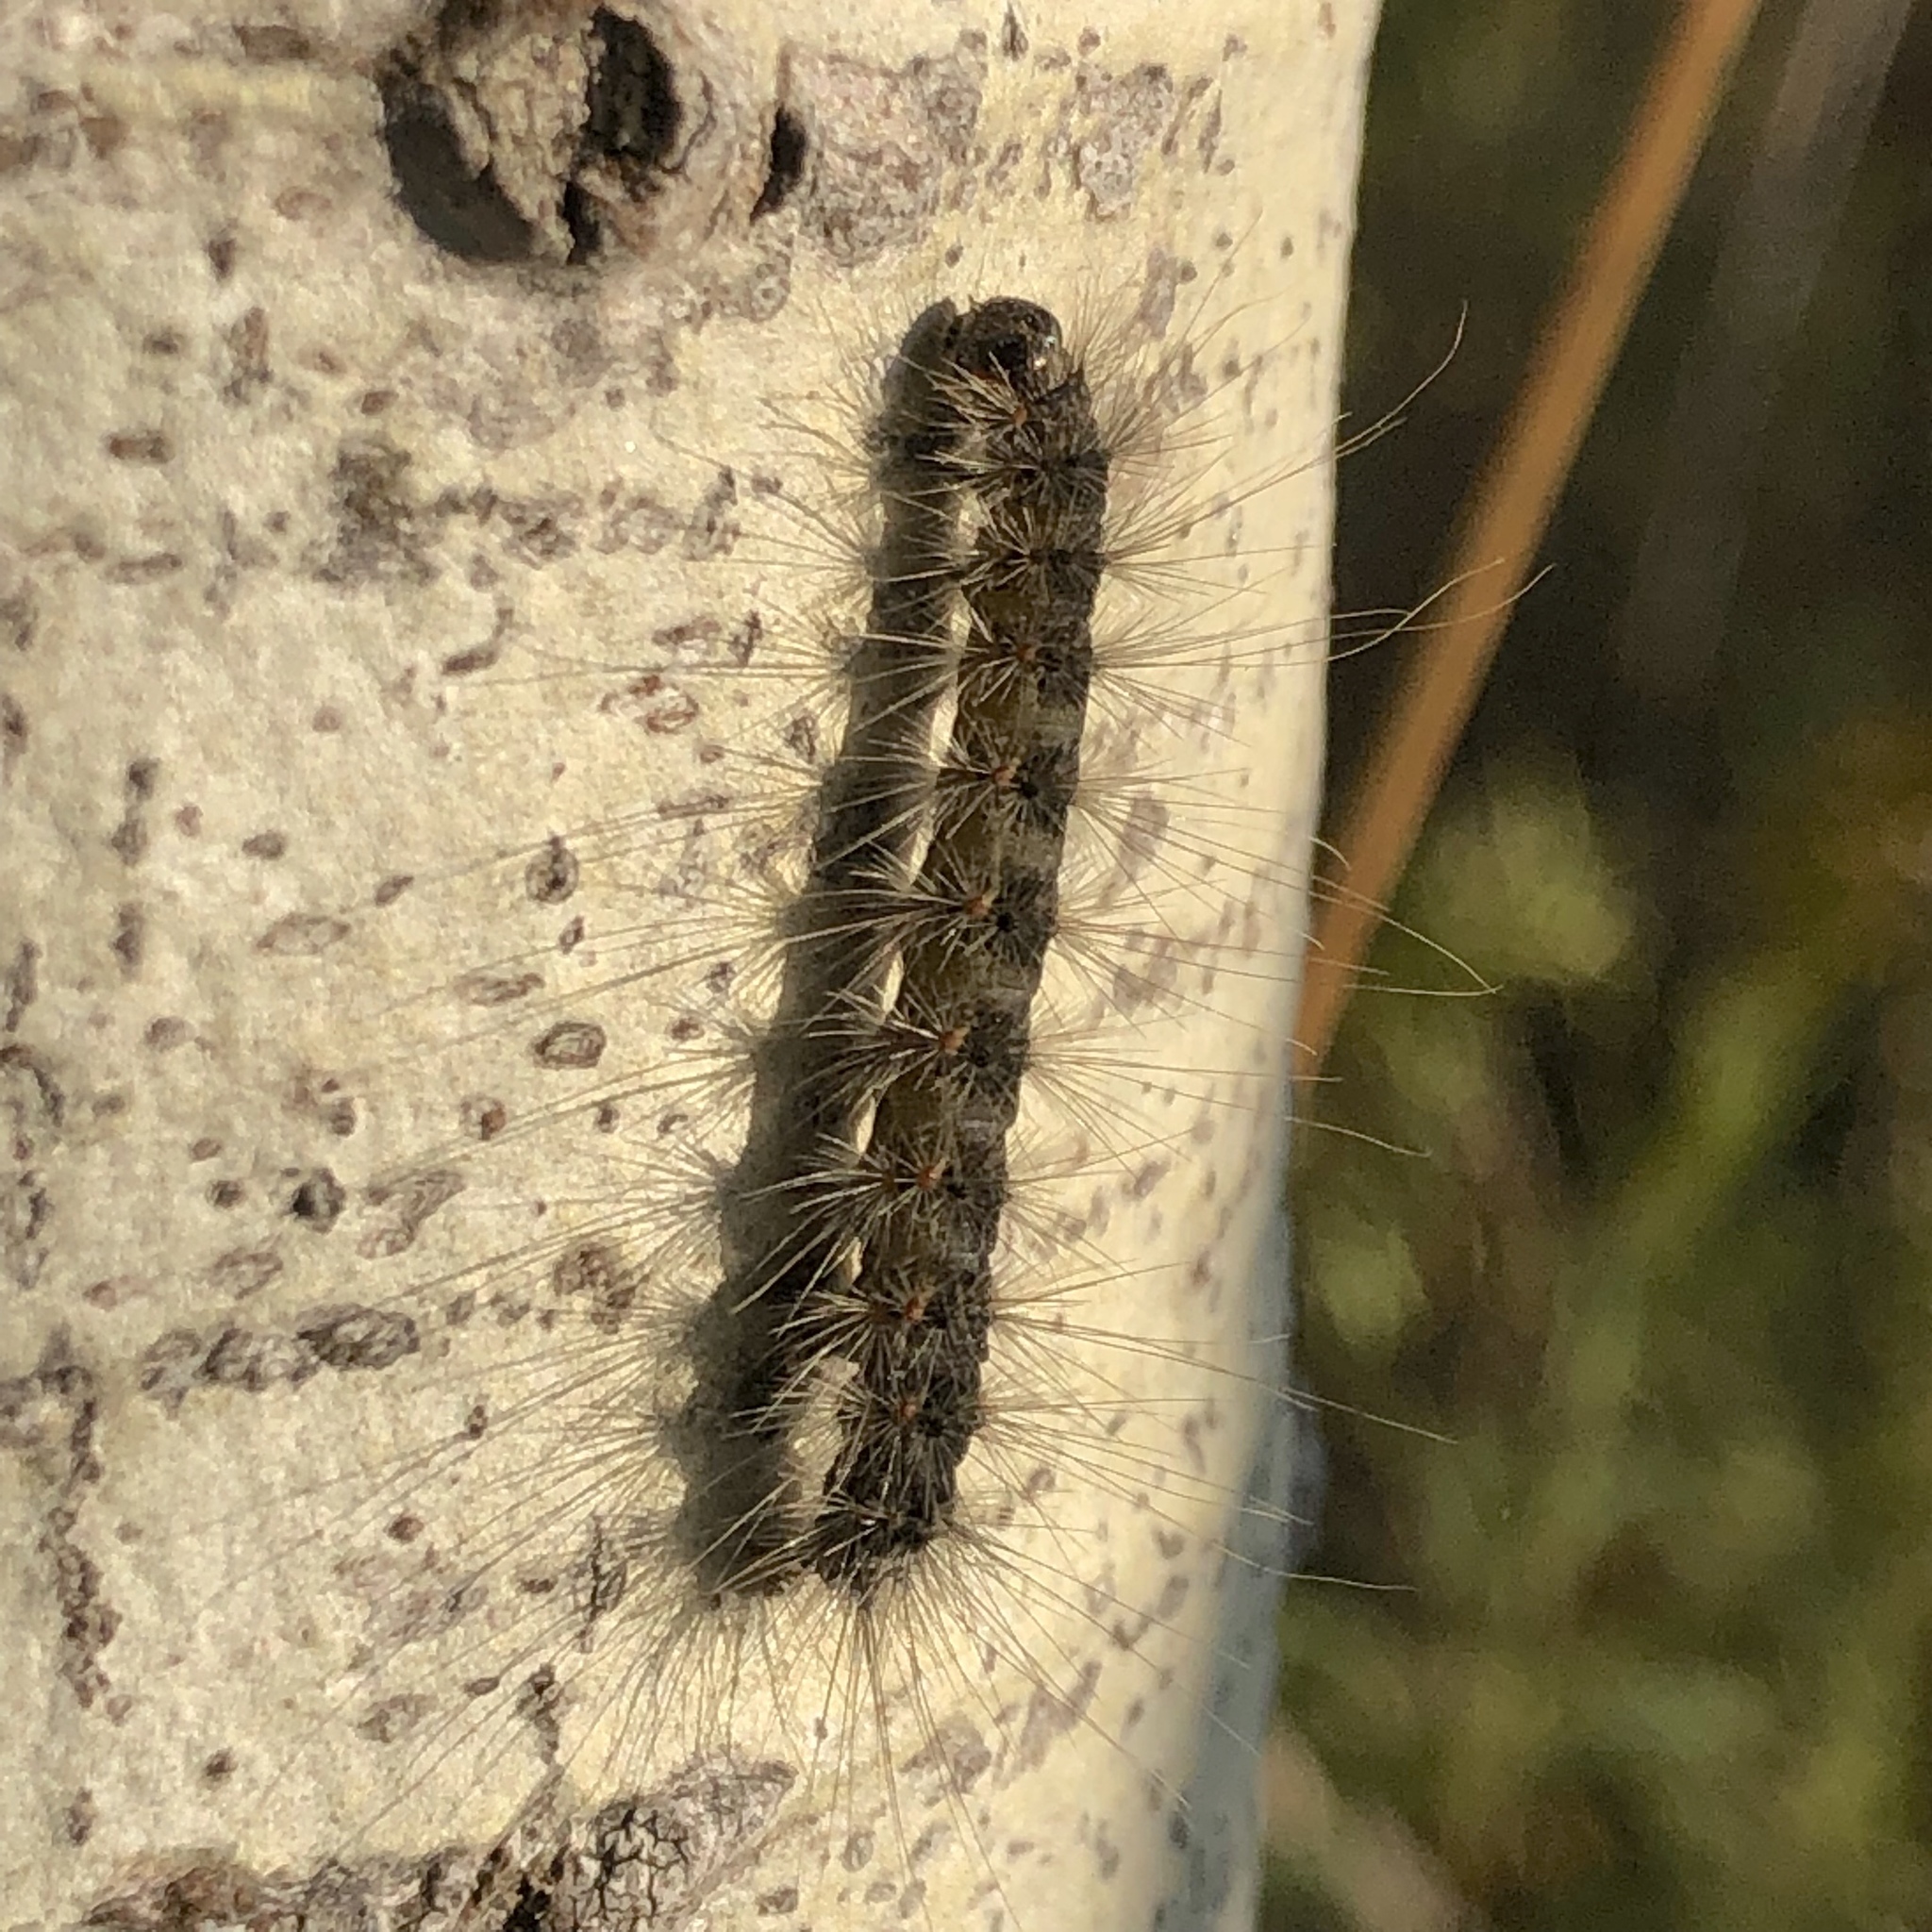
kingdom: Animalia
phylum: Arthropoda
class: Insecta
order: Lepidoptera
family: Erebidae
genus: Hyphantria
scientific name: Hyphantria cunea
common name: American white moth
